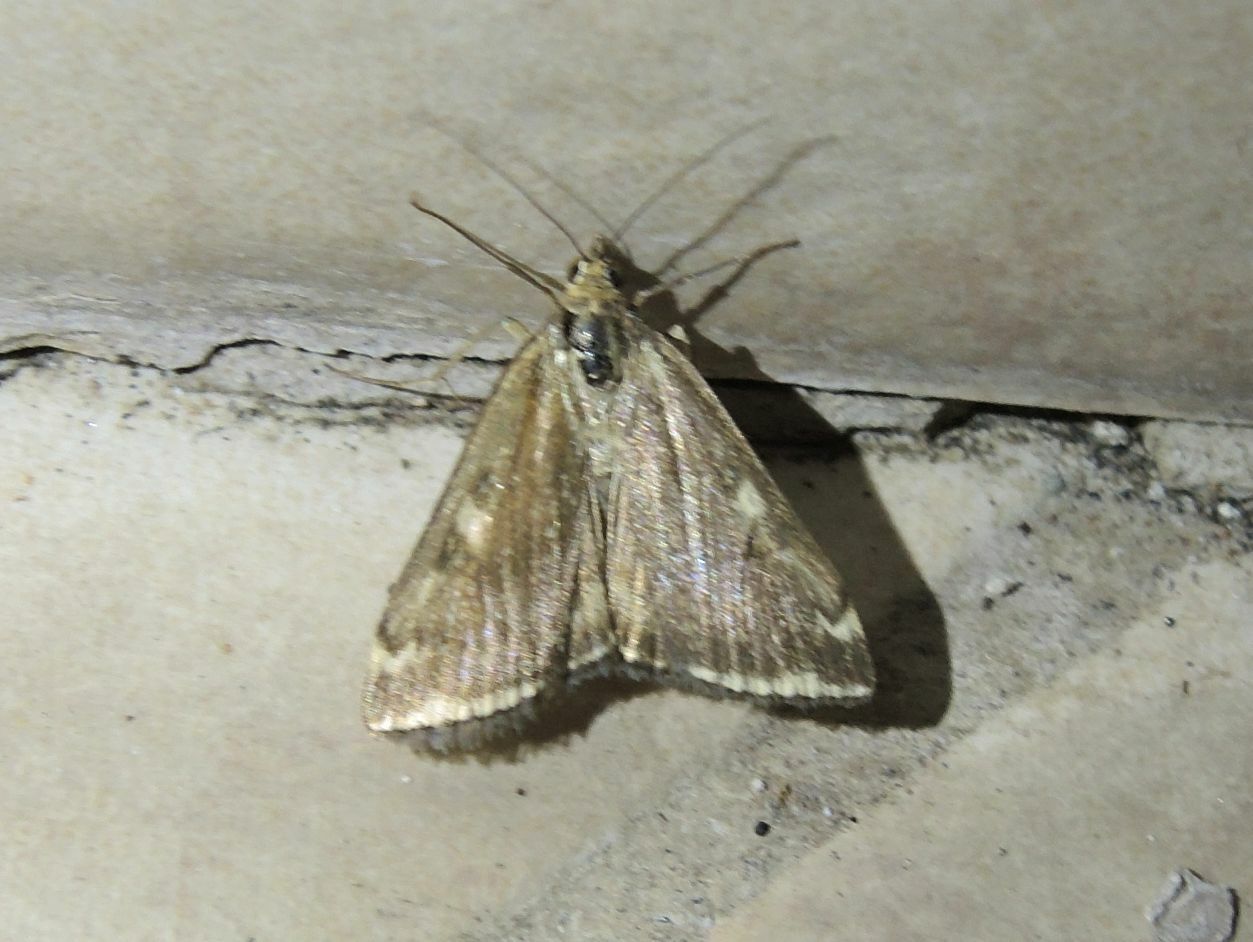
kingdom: Animalia
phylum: Arthropoda
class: Insecta
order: Lepidoptera
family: Crambidae
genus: Loxostege
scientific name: Loxostege sticticalis
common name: Crambid moth
